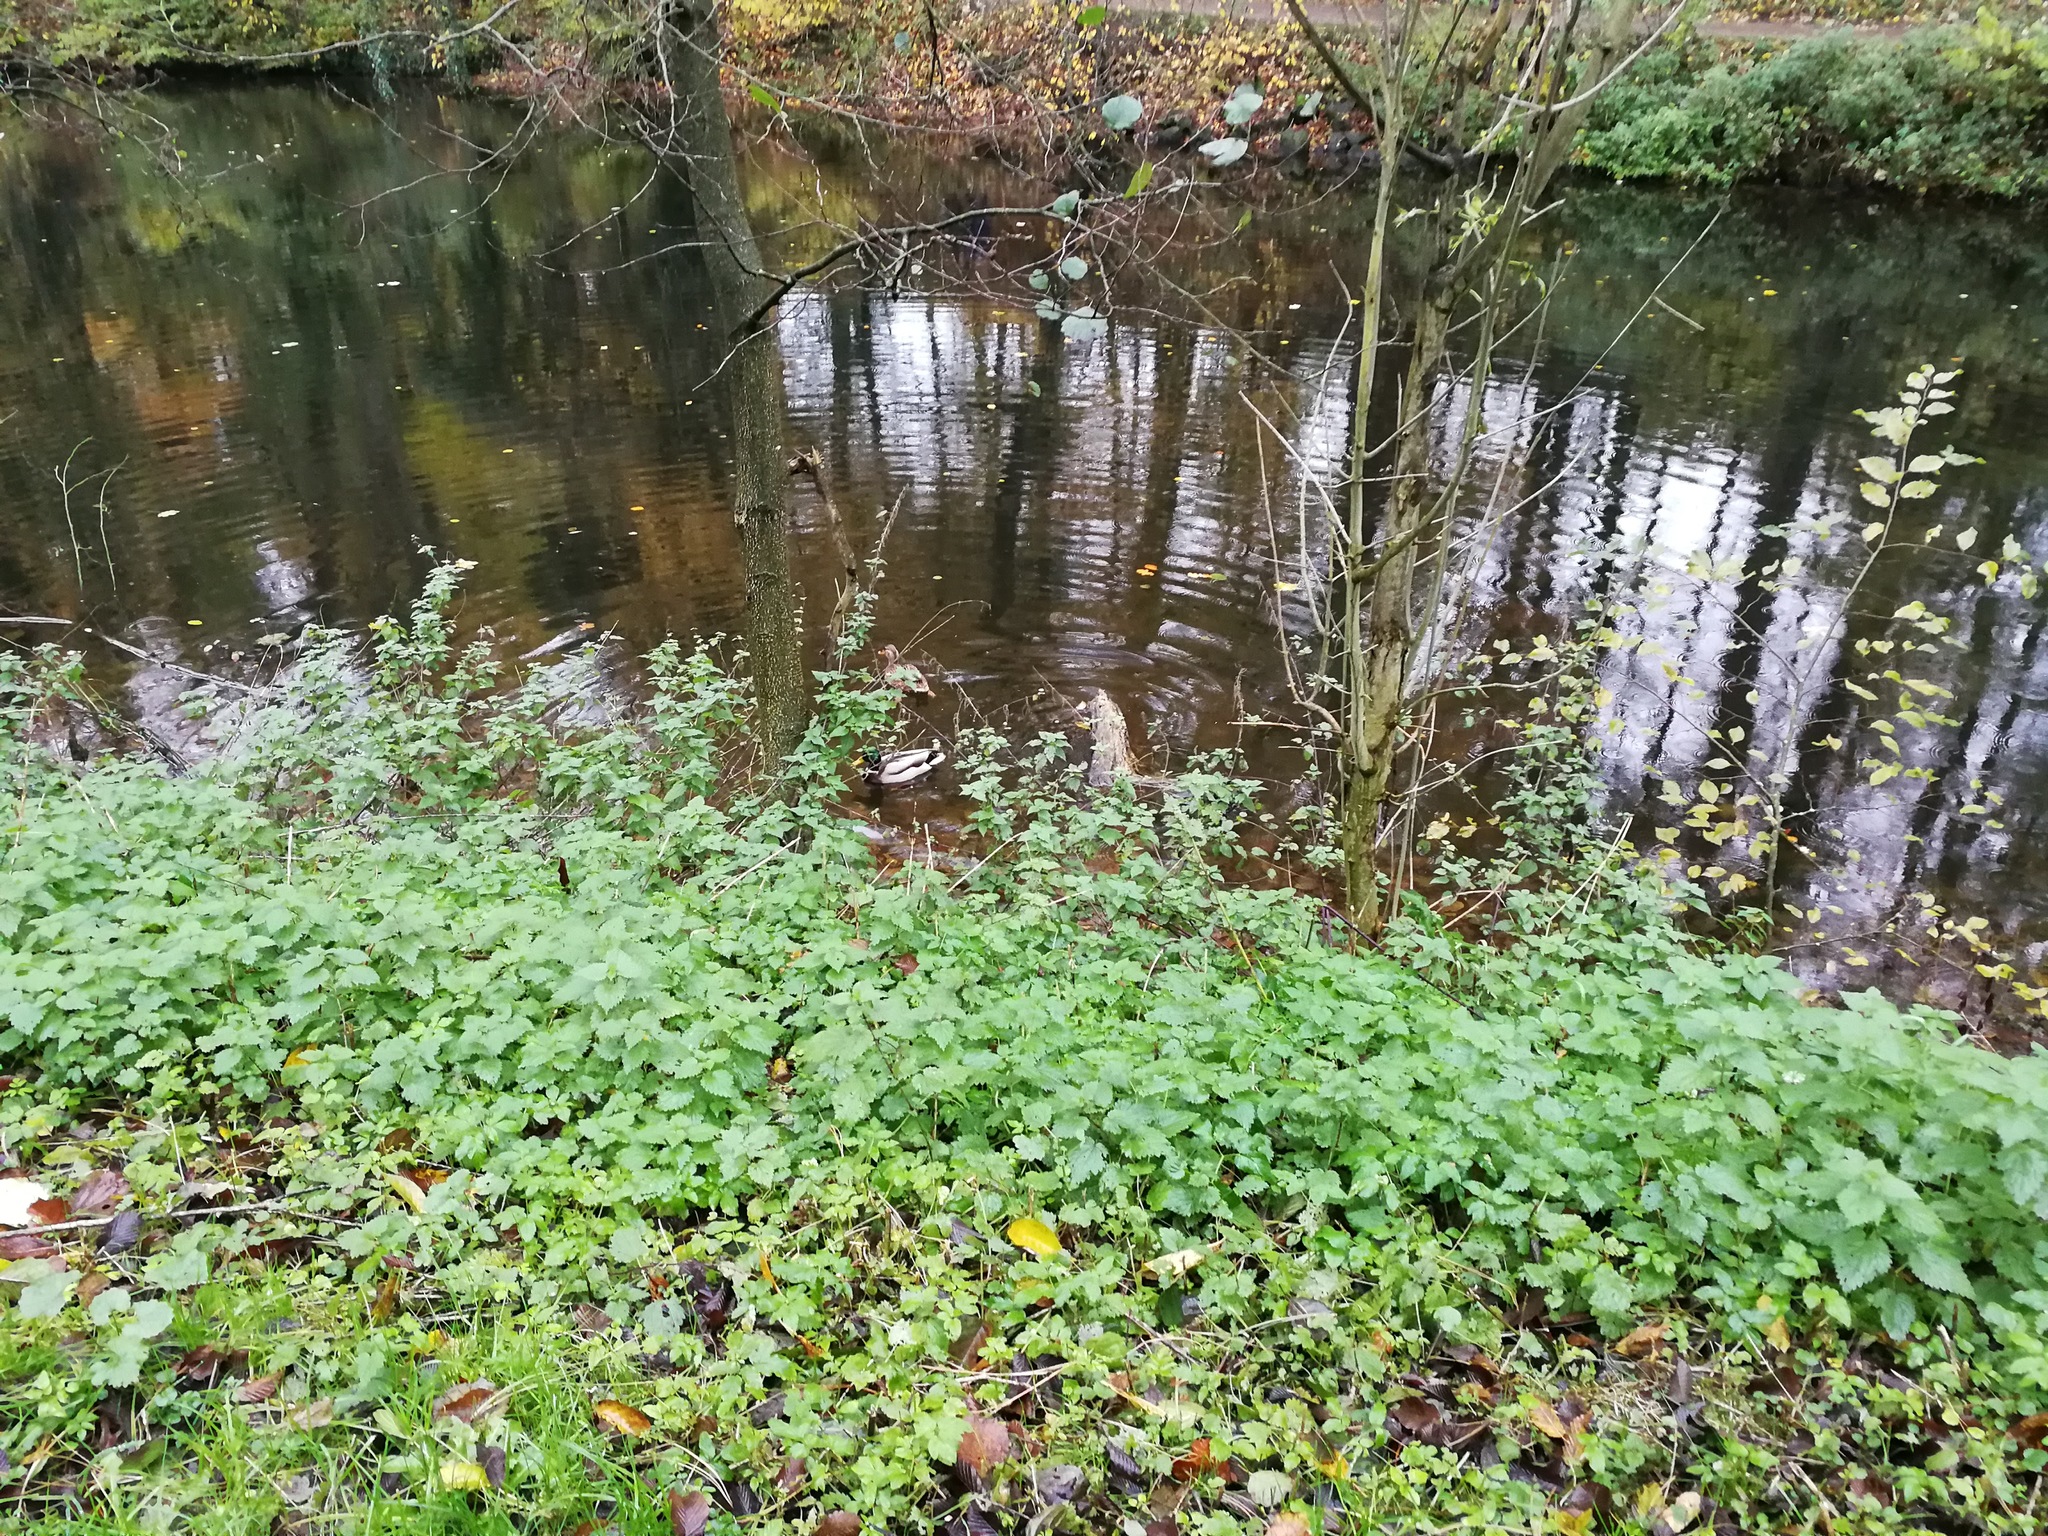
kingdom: Animalia
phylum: Chordata
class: Aves
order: Anseriformes
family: Anatidae
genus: Anas
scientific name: Anas platyrhynchos
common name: Mallard
